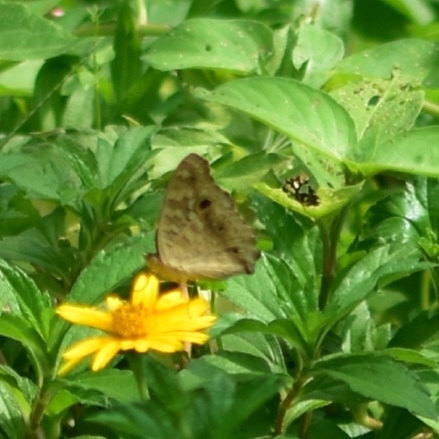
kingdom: Animalia
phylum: Arthropoda
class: Insecta
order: Lepidoptera
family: Nymphalidae
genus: Junonia
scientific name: Junonia lemonias
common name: Lemon pansy
